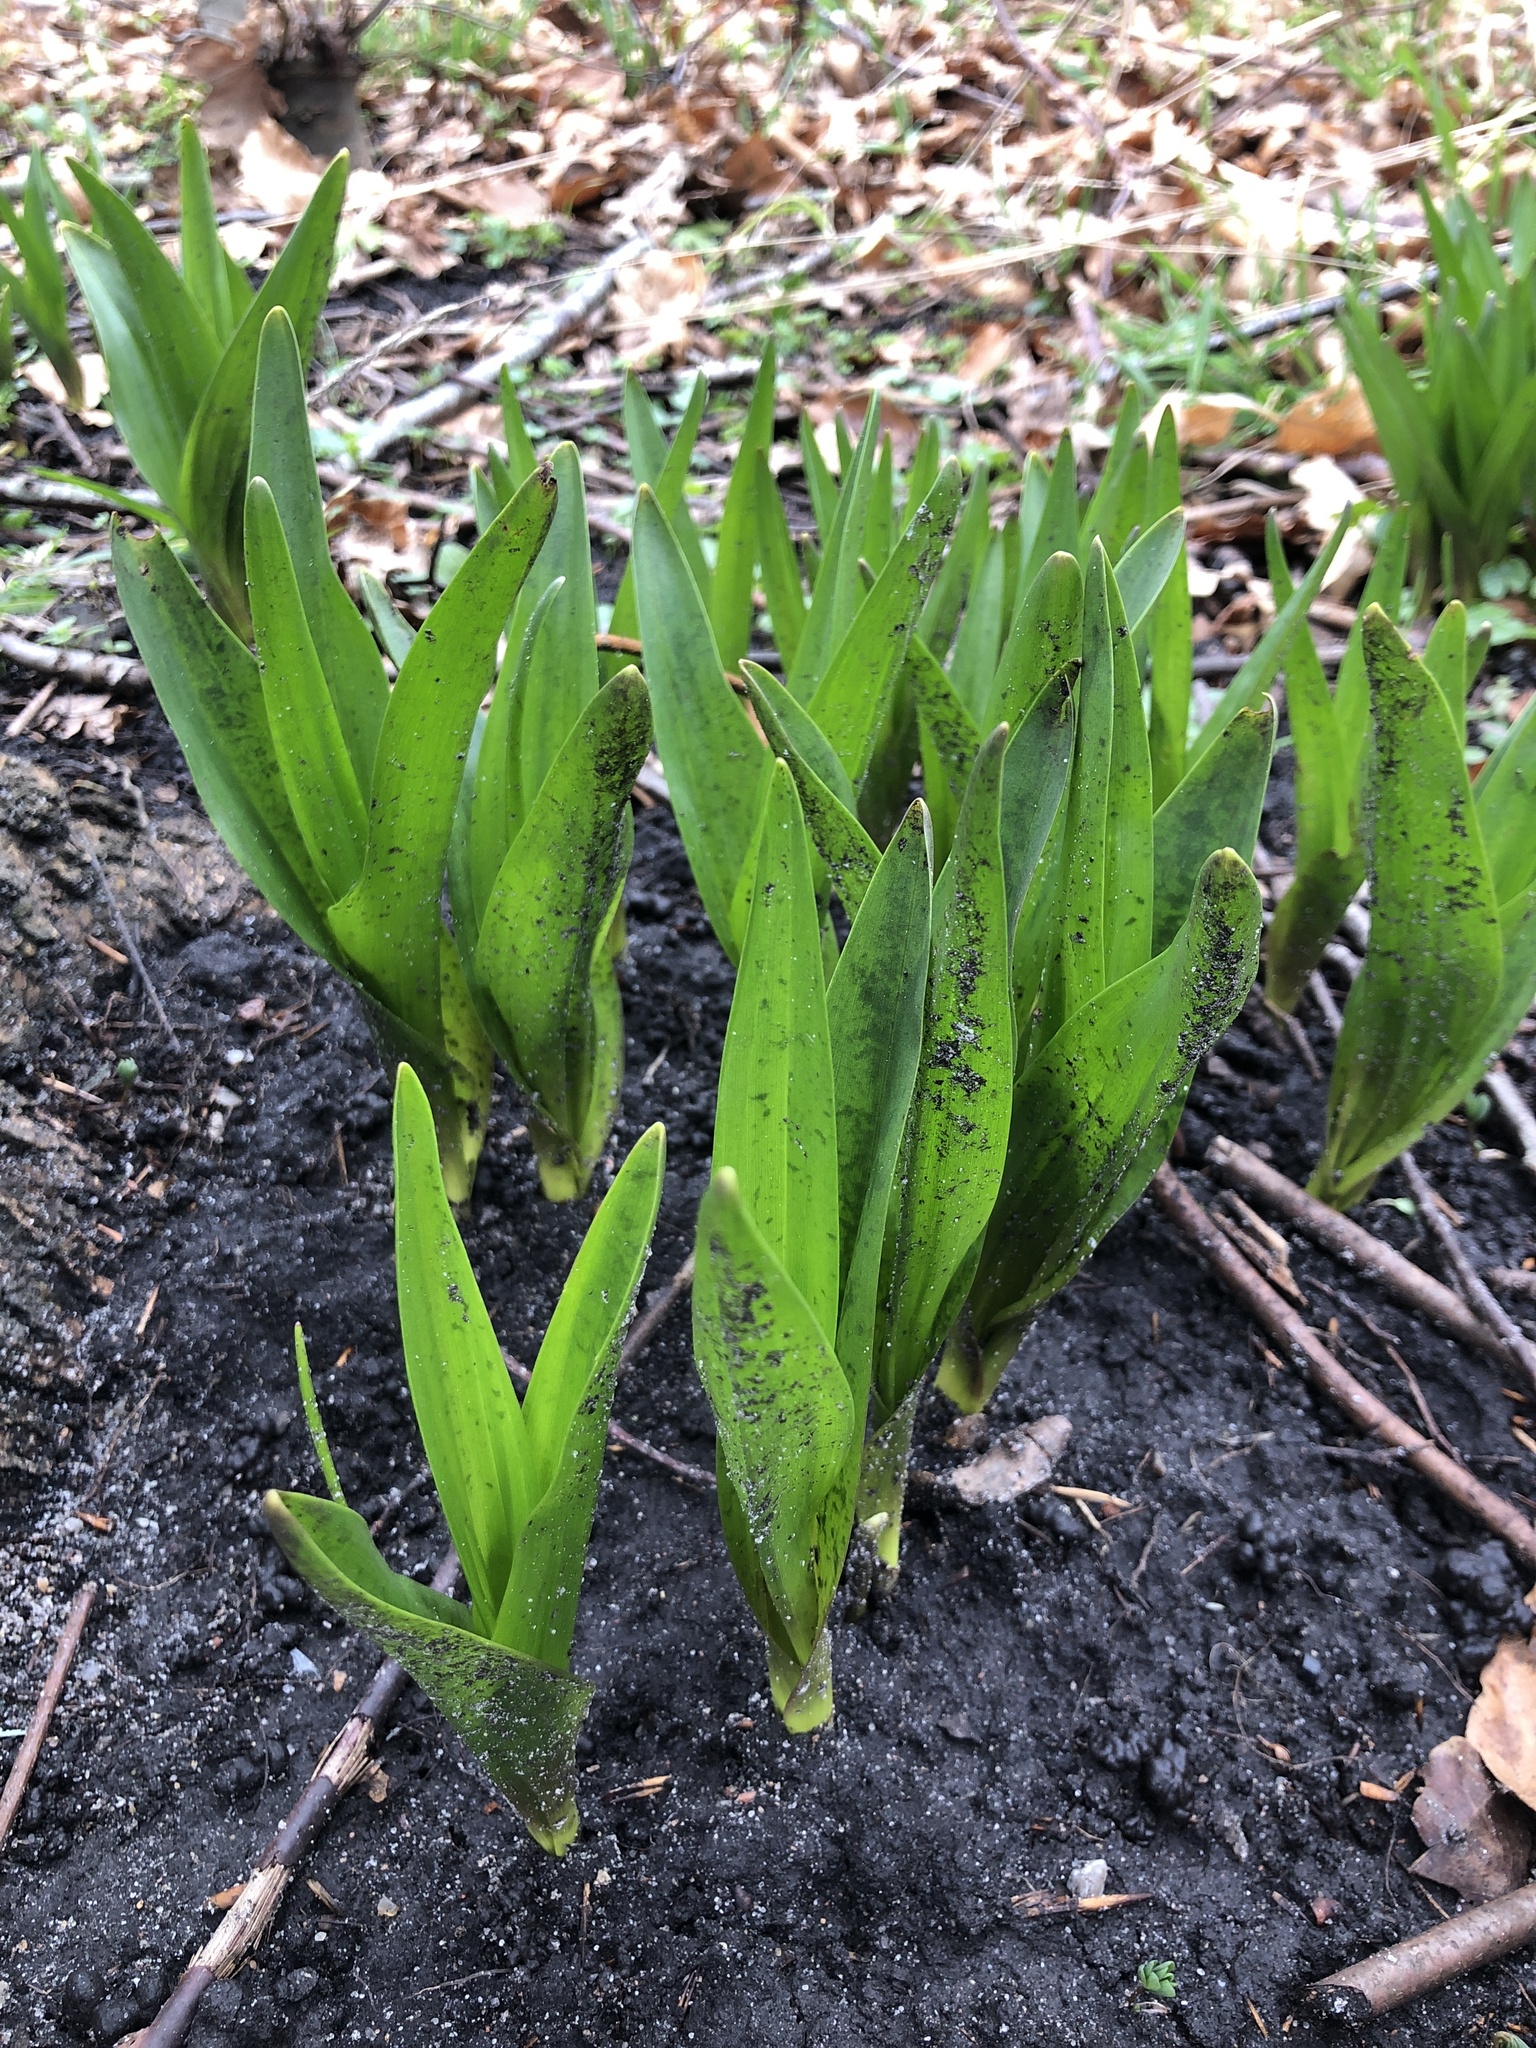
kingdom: Plantae
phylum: Tracheophyta
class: Liliopsida
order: Liliales
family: Colchicaceae
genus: Colchicum
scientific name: Colchicum autumnale
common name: Autumn crocus
